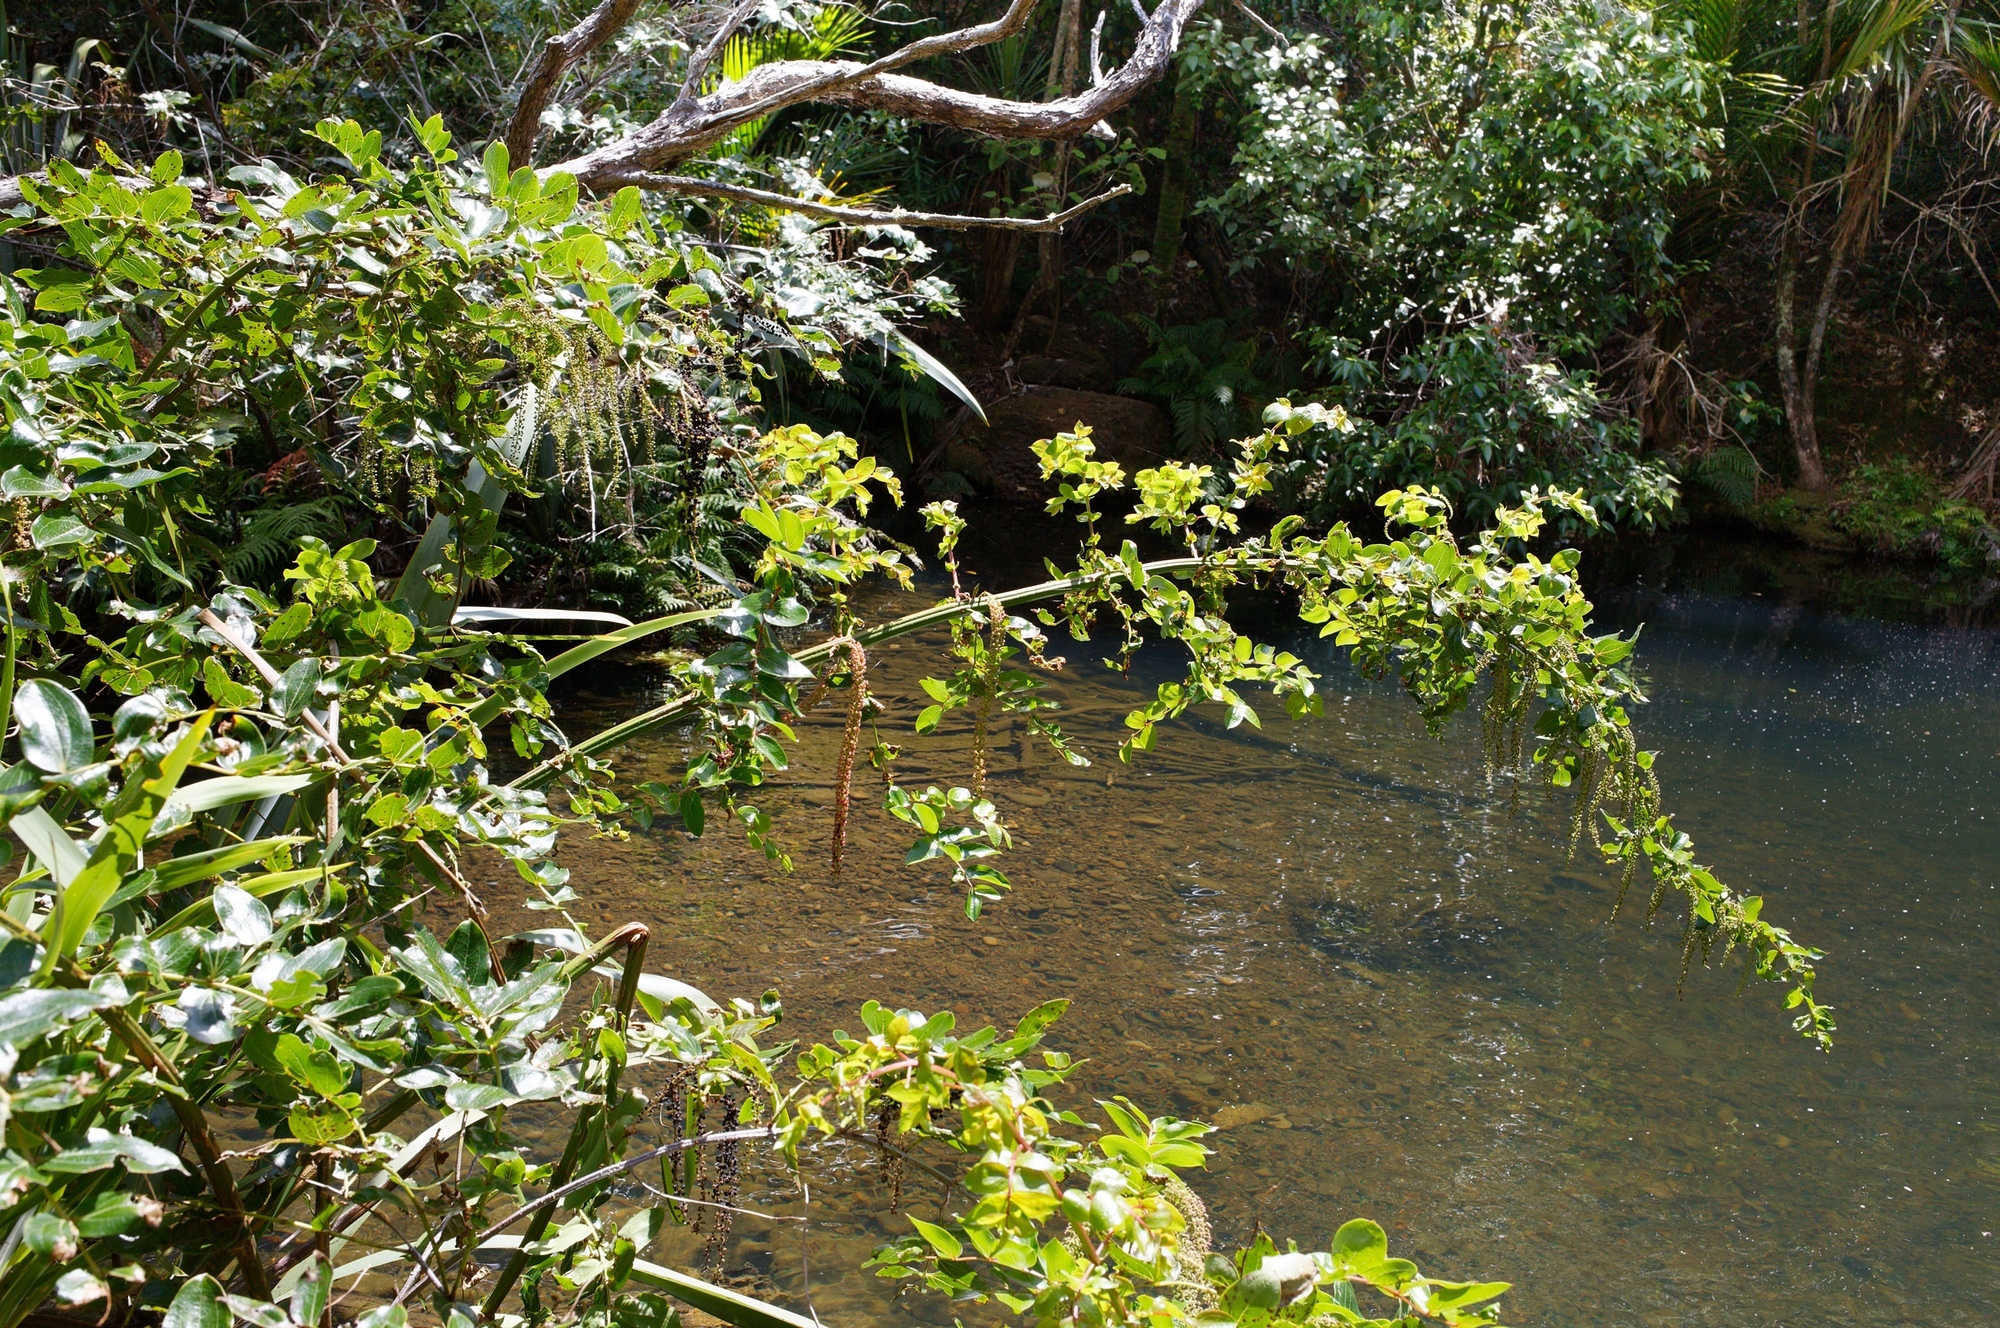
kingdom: Plantae
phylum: Tracheophyta
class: Magnoliopsida
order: Cucurbitales
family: Coriariaceae
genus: Coriaria
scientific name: Coriaria arborea
